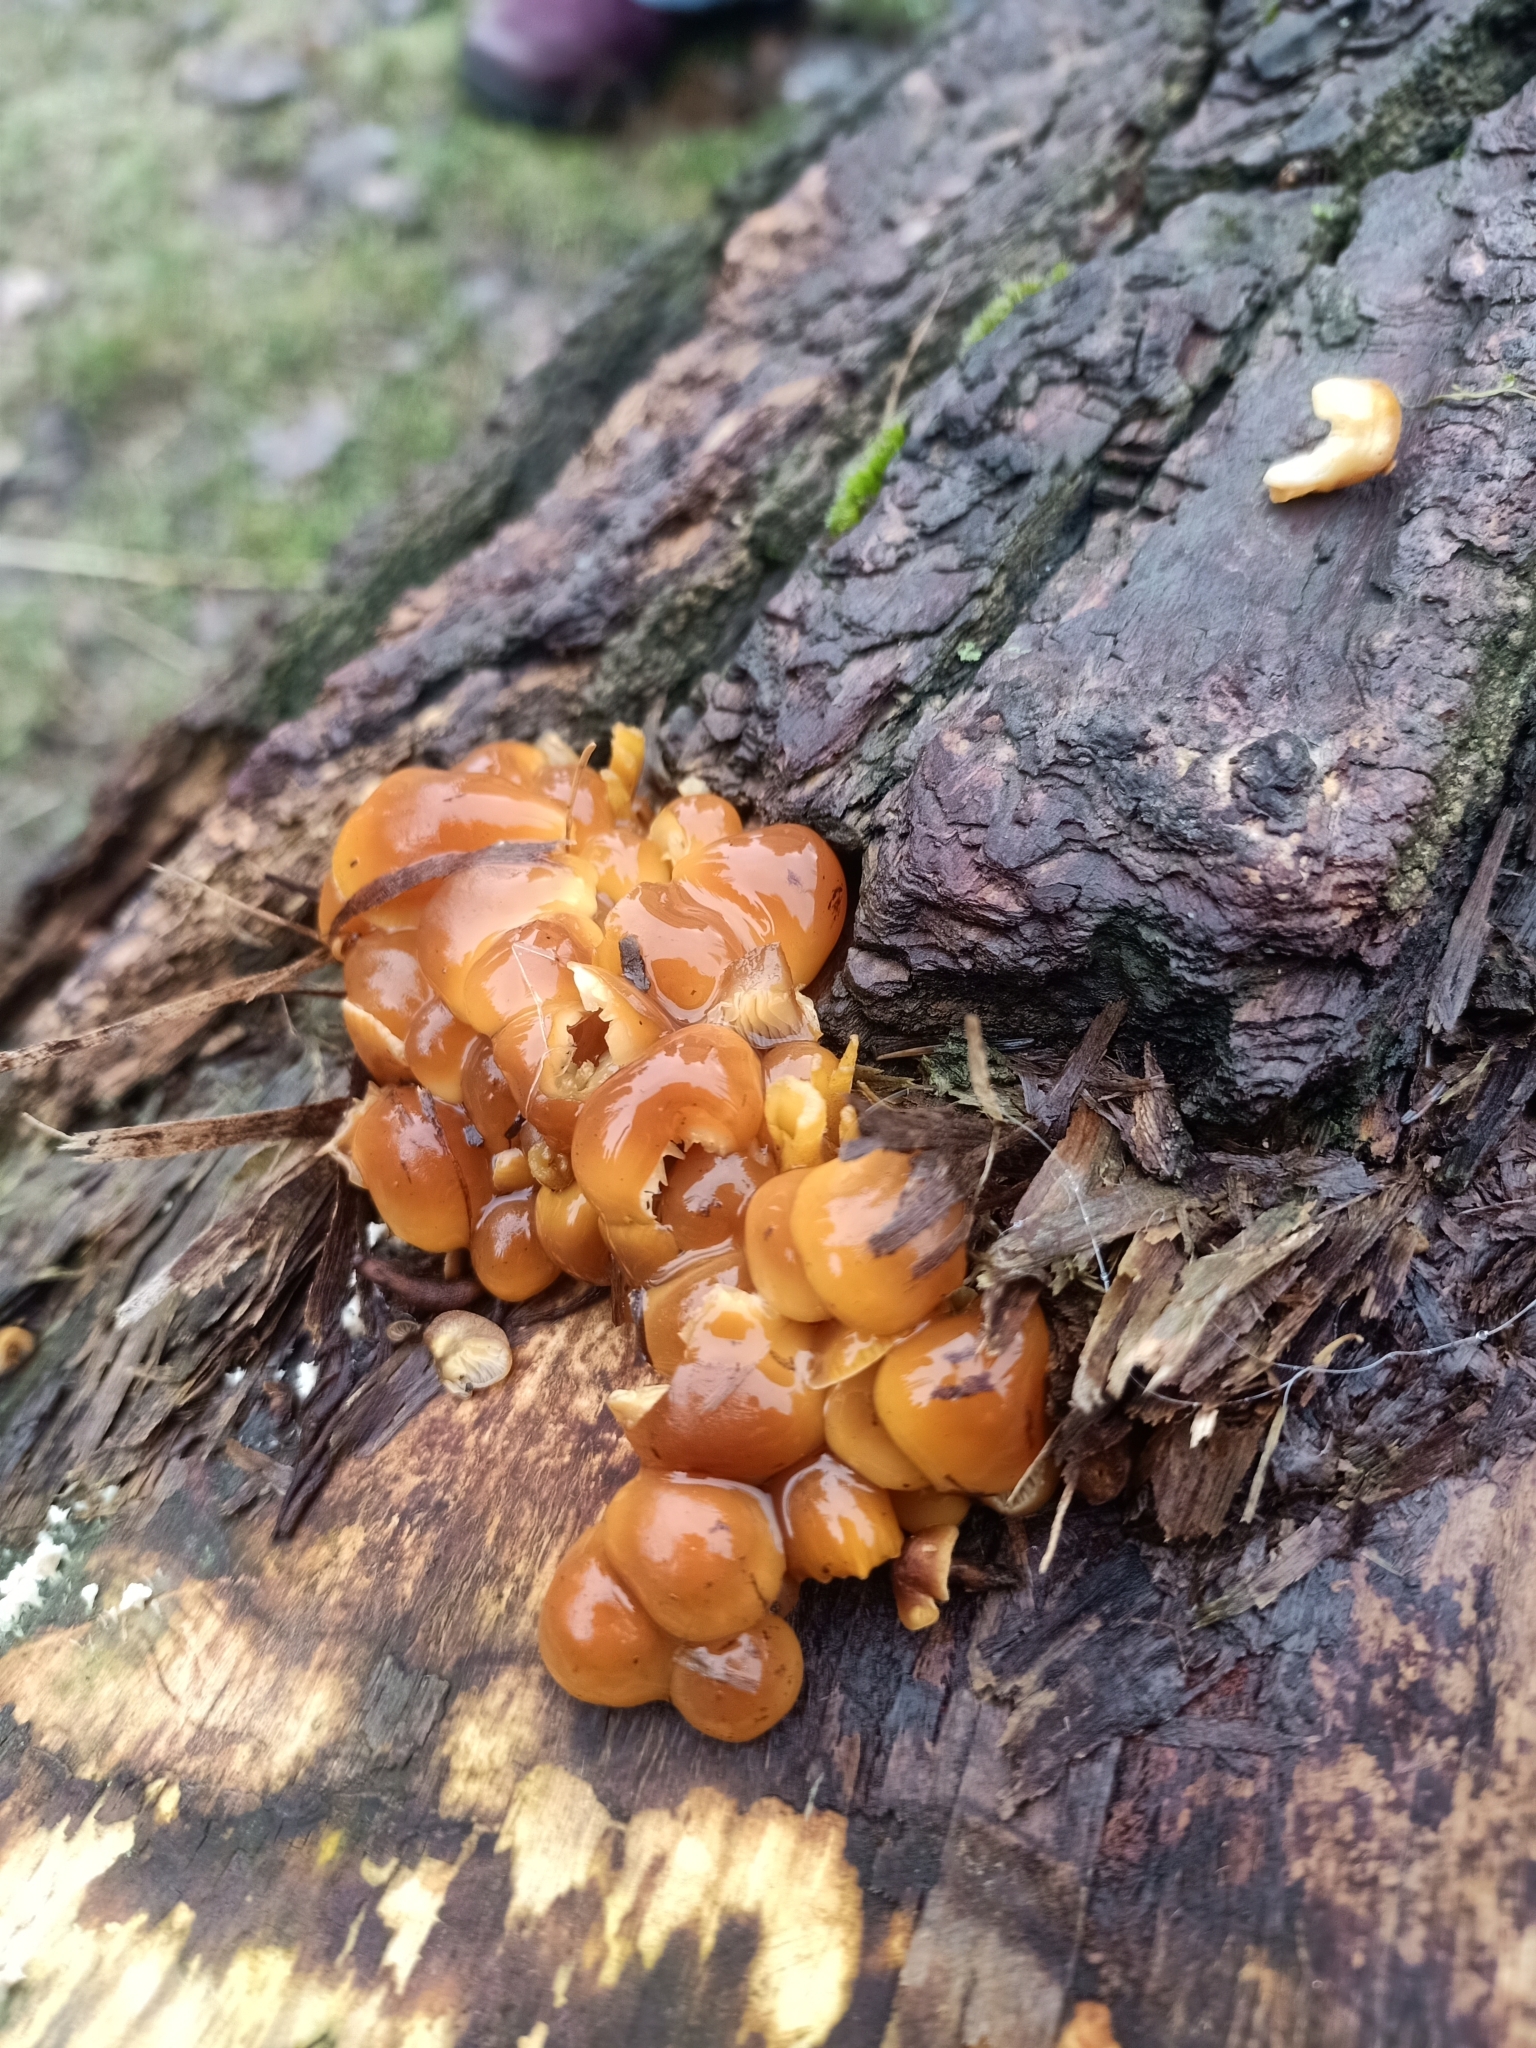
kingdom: Fungi
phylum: Basidiomycota
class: Agaricomycetes
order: Agaricales
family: Physalacriaceae
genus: Flammulina
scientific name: Flammulina
